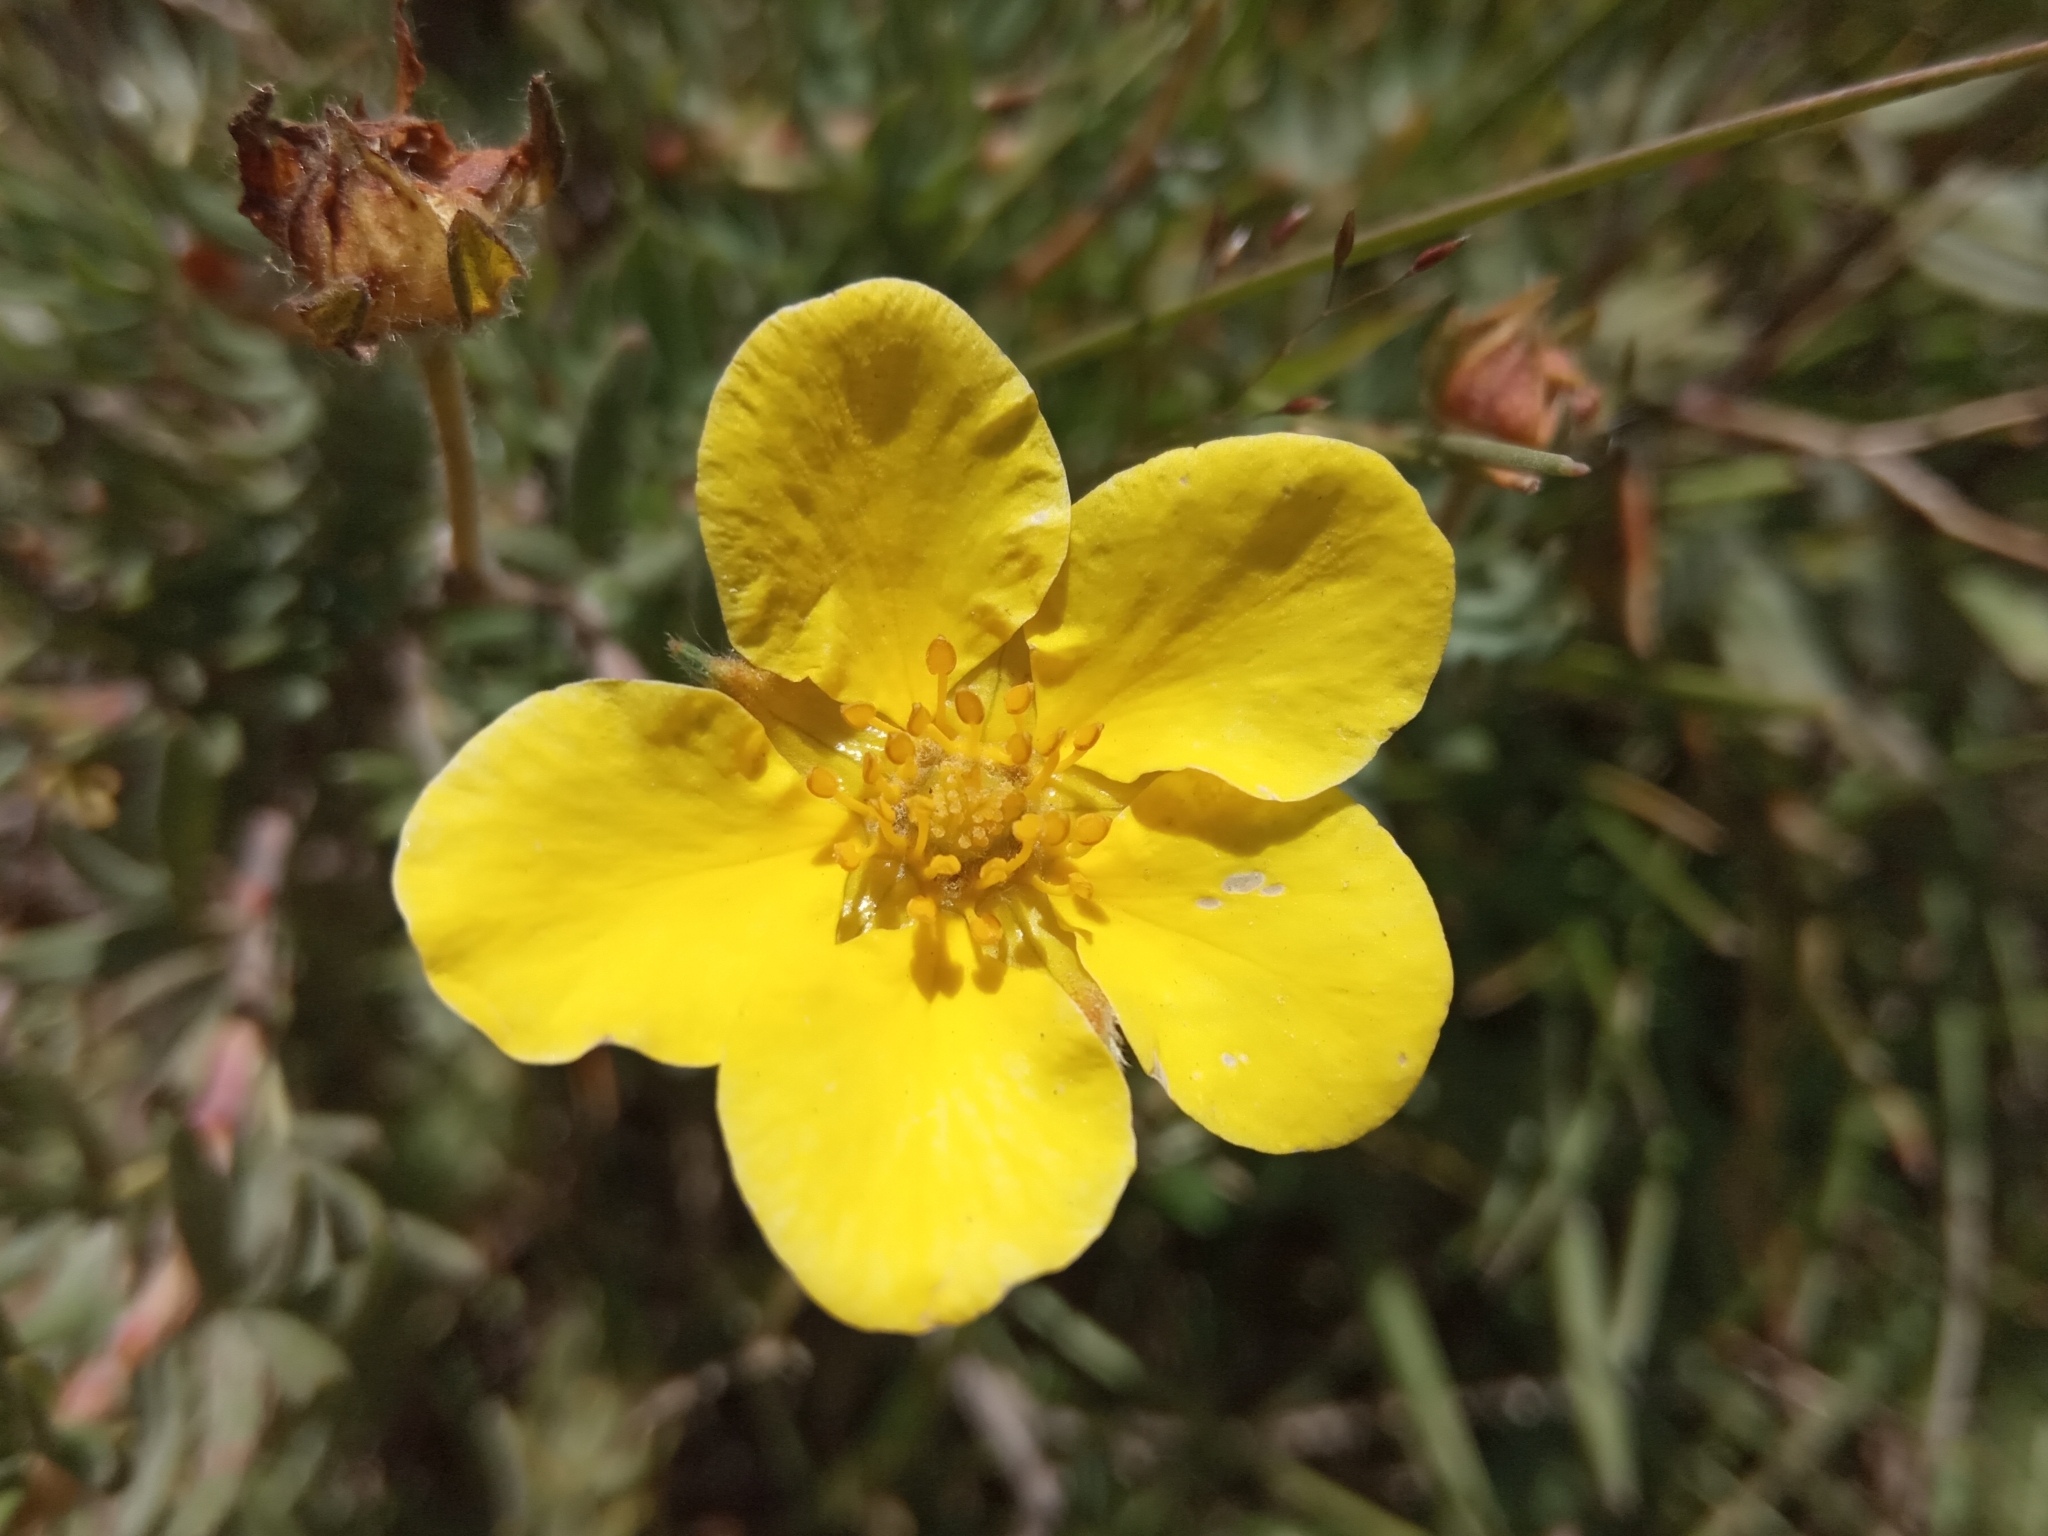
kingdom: Plantae
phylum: Tracheophyta
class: Magnoliopsida
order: Rosales
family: Rosaceae
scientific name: Rosaceae
